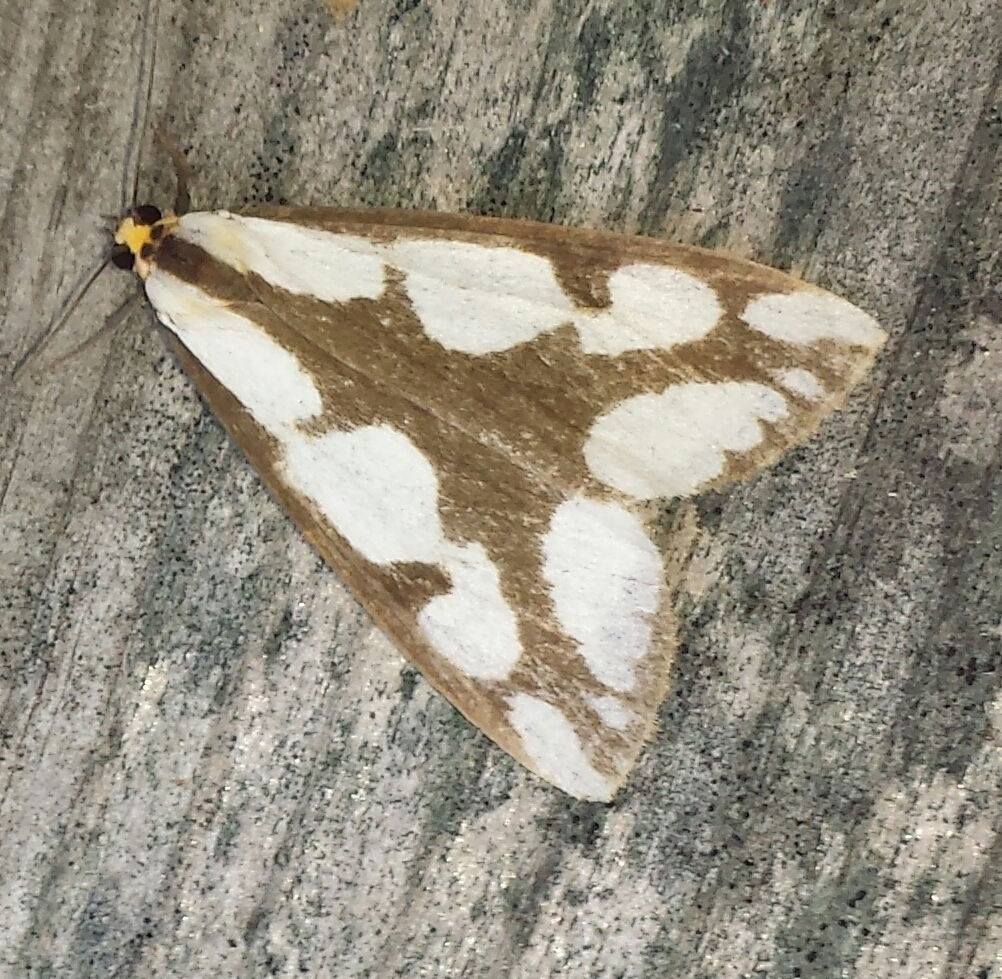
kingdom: Animalia
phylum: Arthropoda
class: Insecta
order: Lepidoptera
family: Erebidae
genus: Haploa
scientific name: Haploa lecontei
